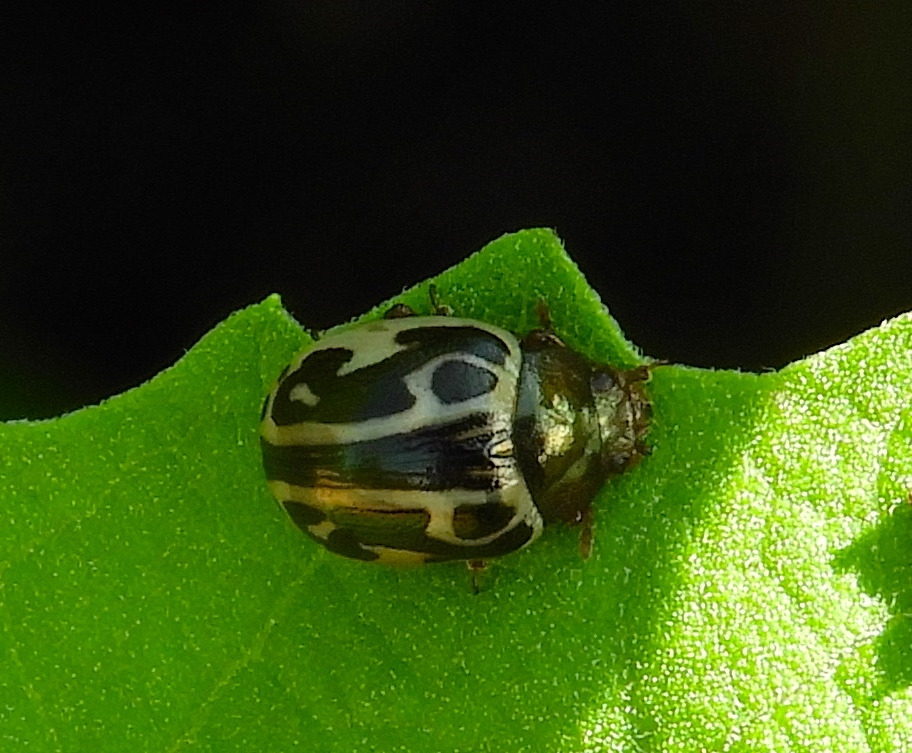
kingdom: Animalia
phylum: Arthropoda
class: Insecta
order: Coleoptera
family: Chrysomelidae
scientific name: Chrysomelidae
